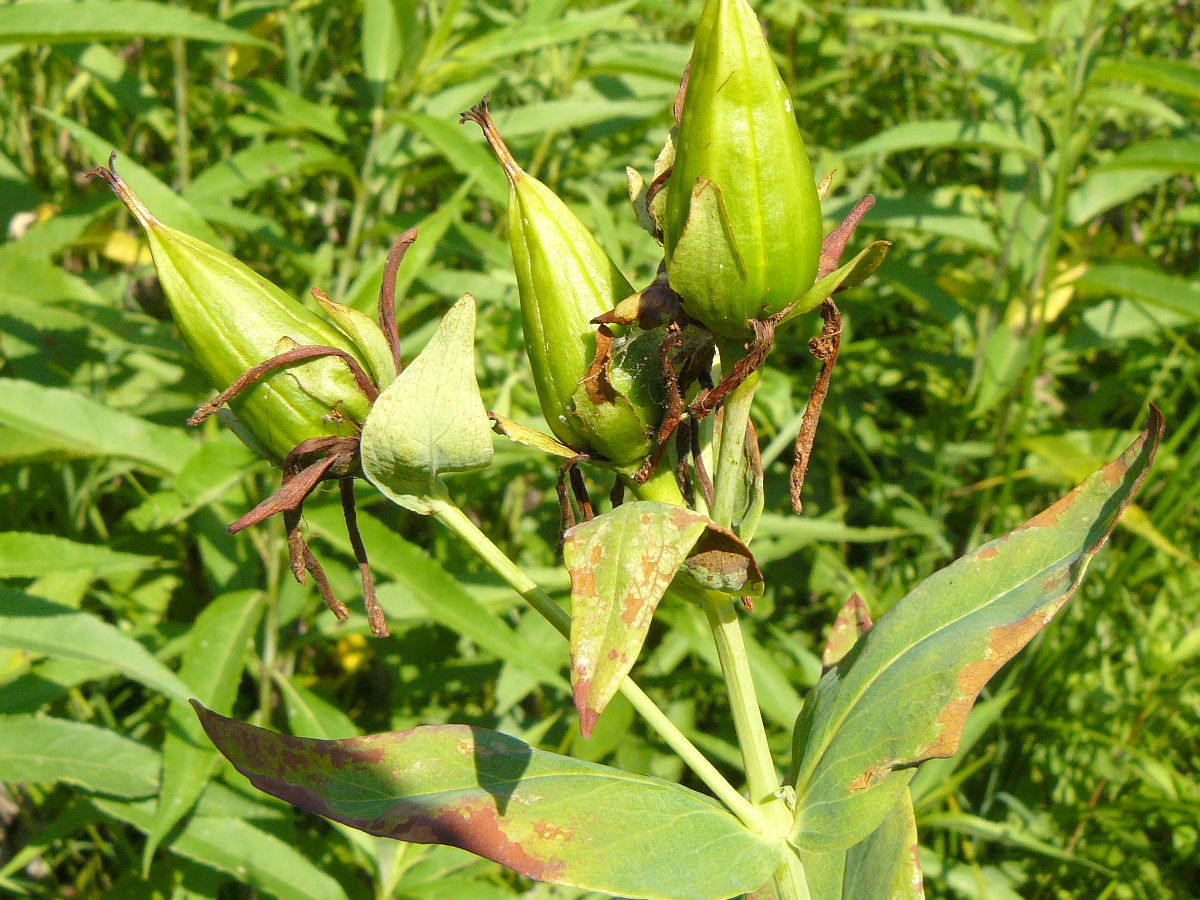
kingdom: Plantae
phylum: Tracheophyta
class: Magnoliopsida
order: Malpighiales
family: Hypericaceae
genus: Hypericum
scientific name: Hypericum ascyron
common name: Giant st. john's-wort
